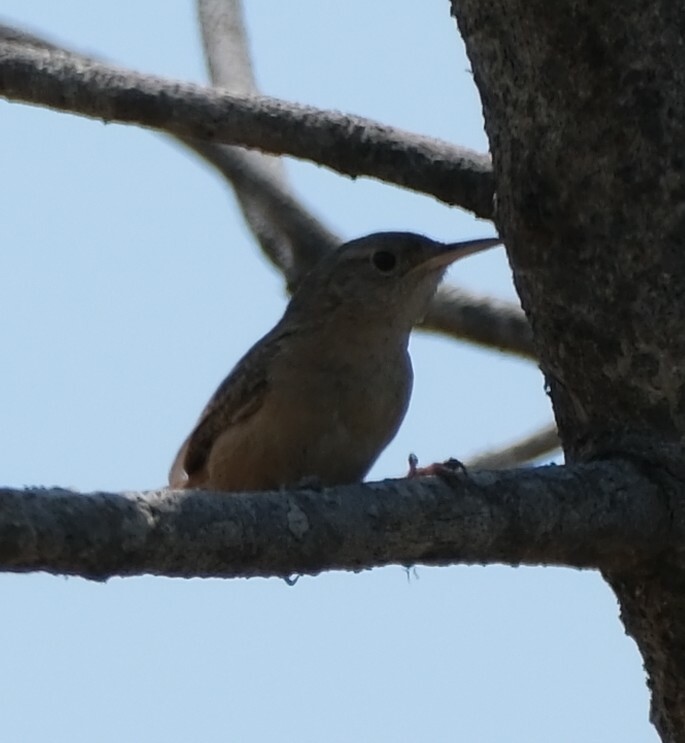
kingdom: Animalia
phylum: Chordata
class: Aves
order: Passeriformes
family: Troglodytidae
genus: Troglodytes
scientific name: Troglodytes aedon
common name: House wren
